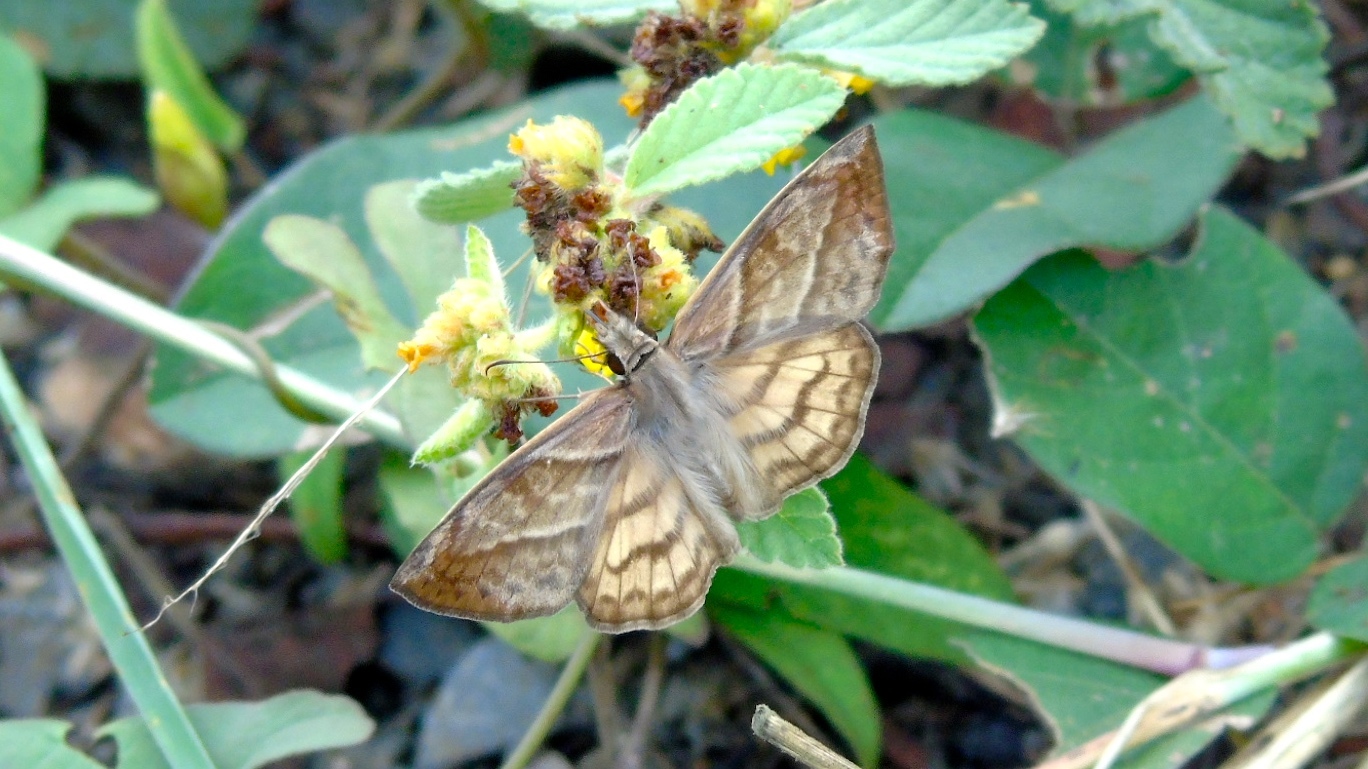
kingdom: Animalia
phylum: Arthropoda
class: Insecta
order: Lepidoptera
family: Hesperiidae
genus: Timochares
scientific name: Timochares trifasciata
